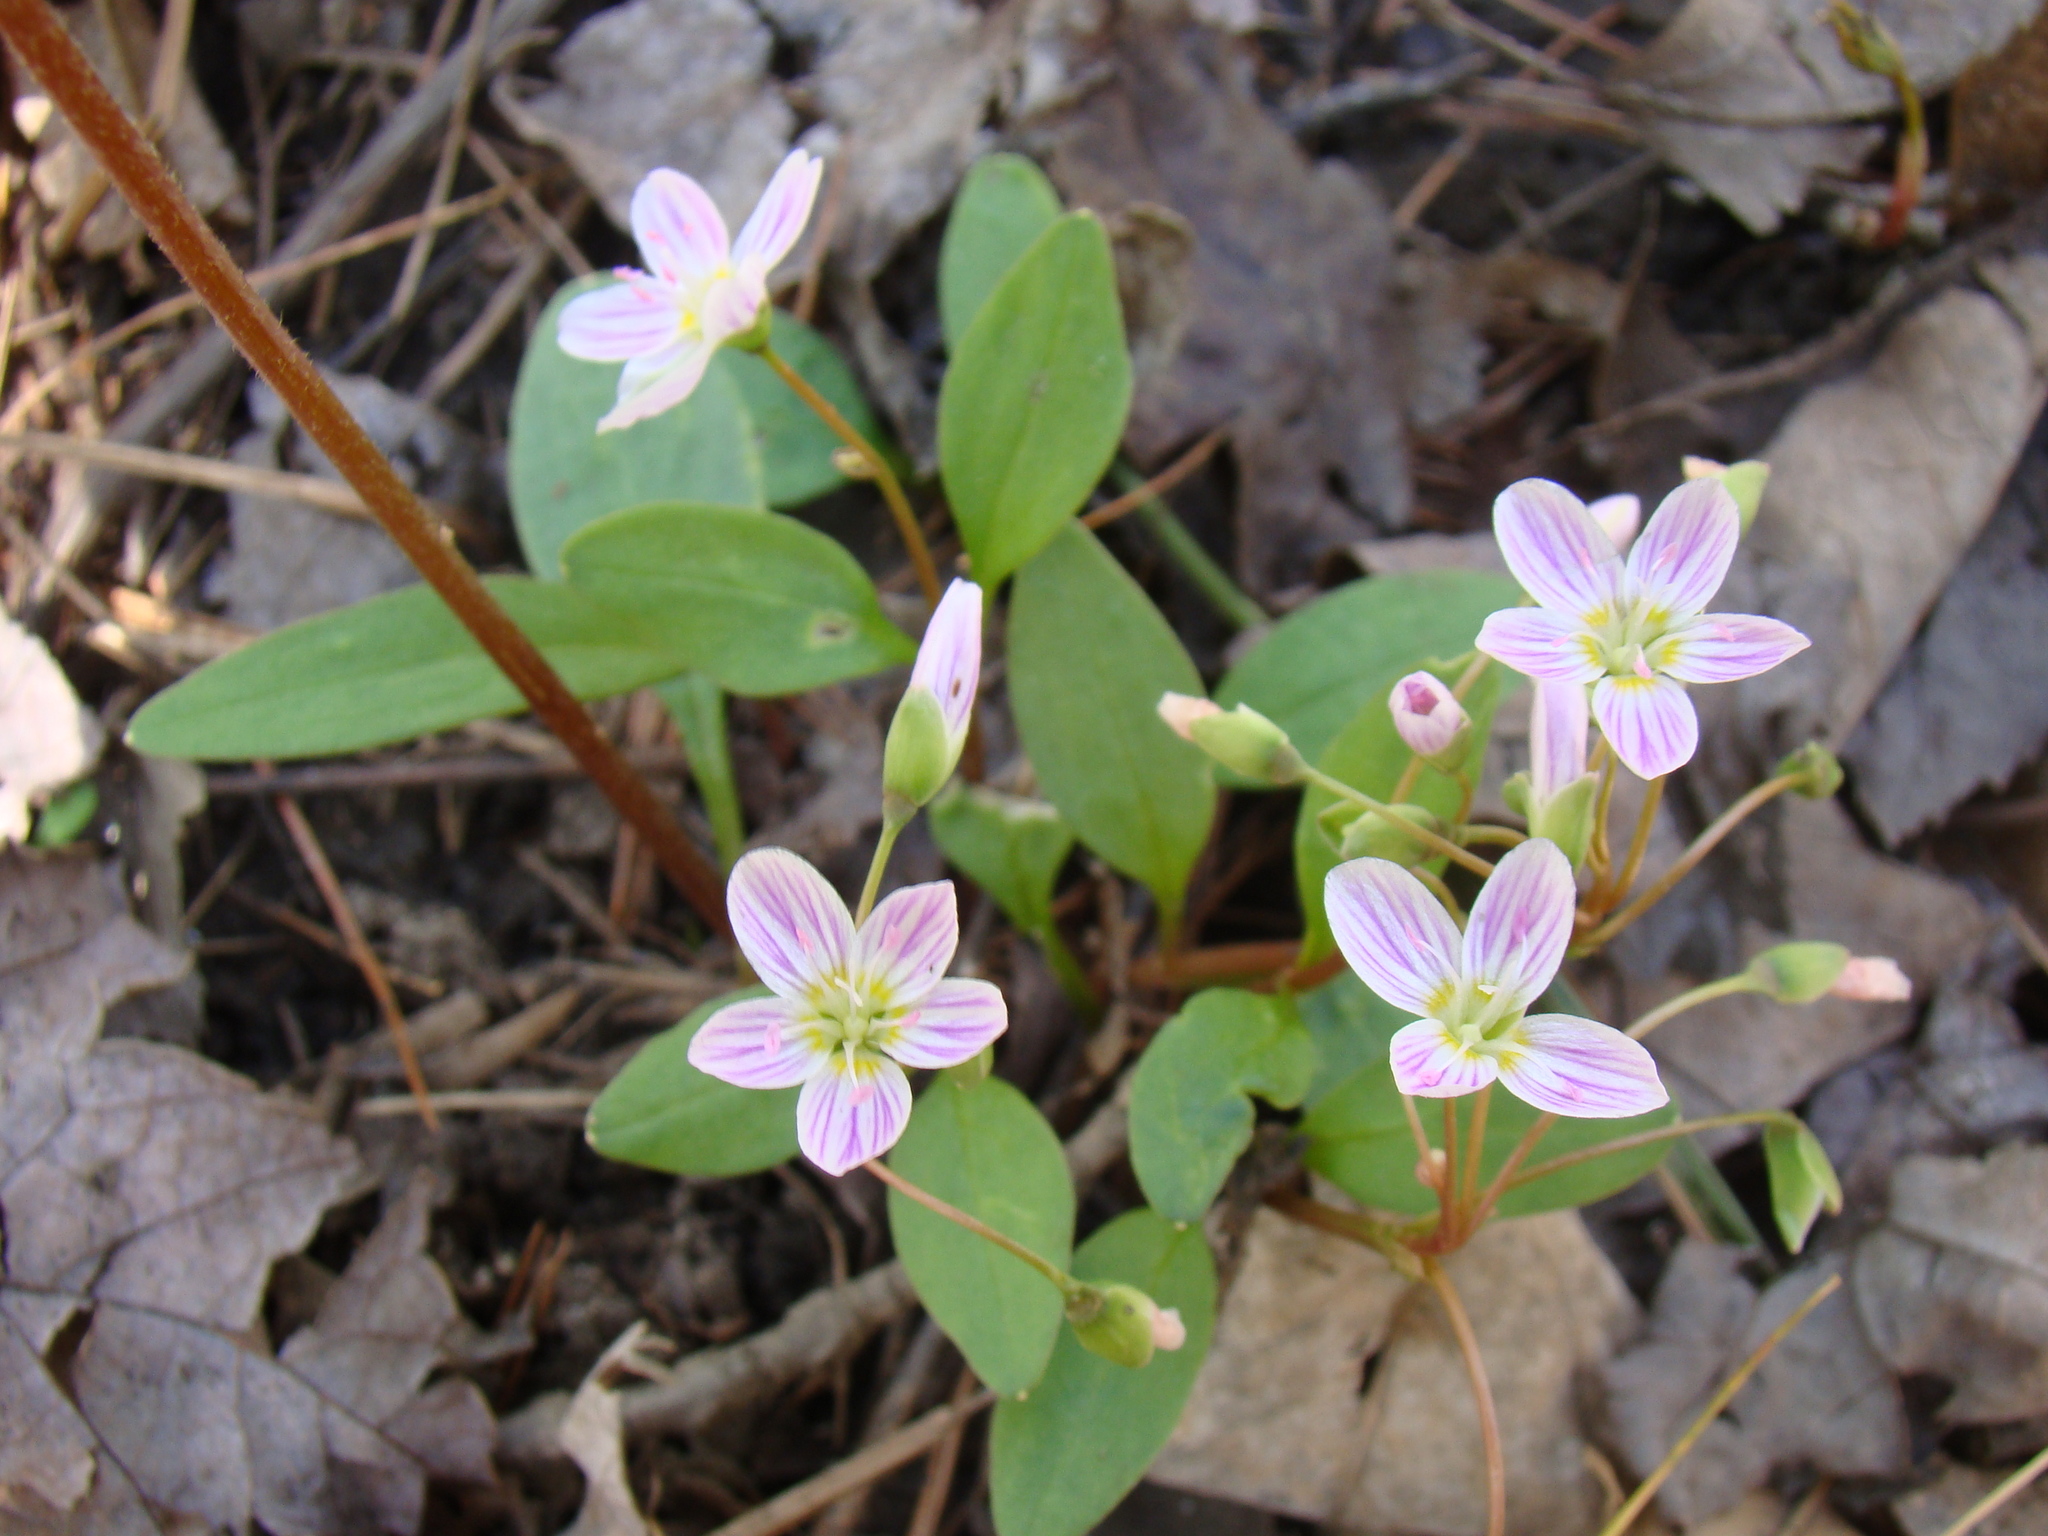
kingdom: Plantae
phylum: Tracheophyta
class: Magnoliopsida
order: Caryophyllales
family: Montiaceae
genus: Claytonia
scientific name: Claytonia caroliniana
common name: Carolina spring beauty
